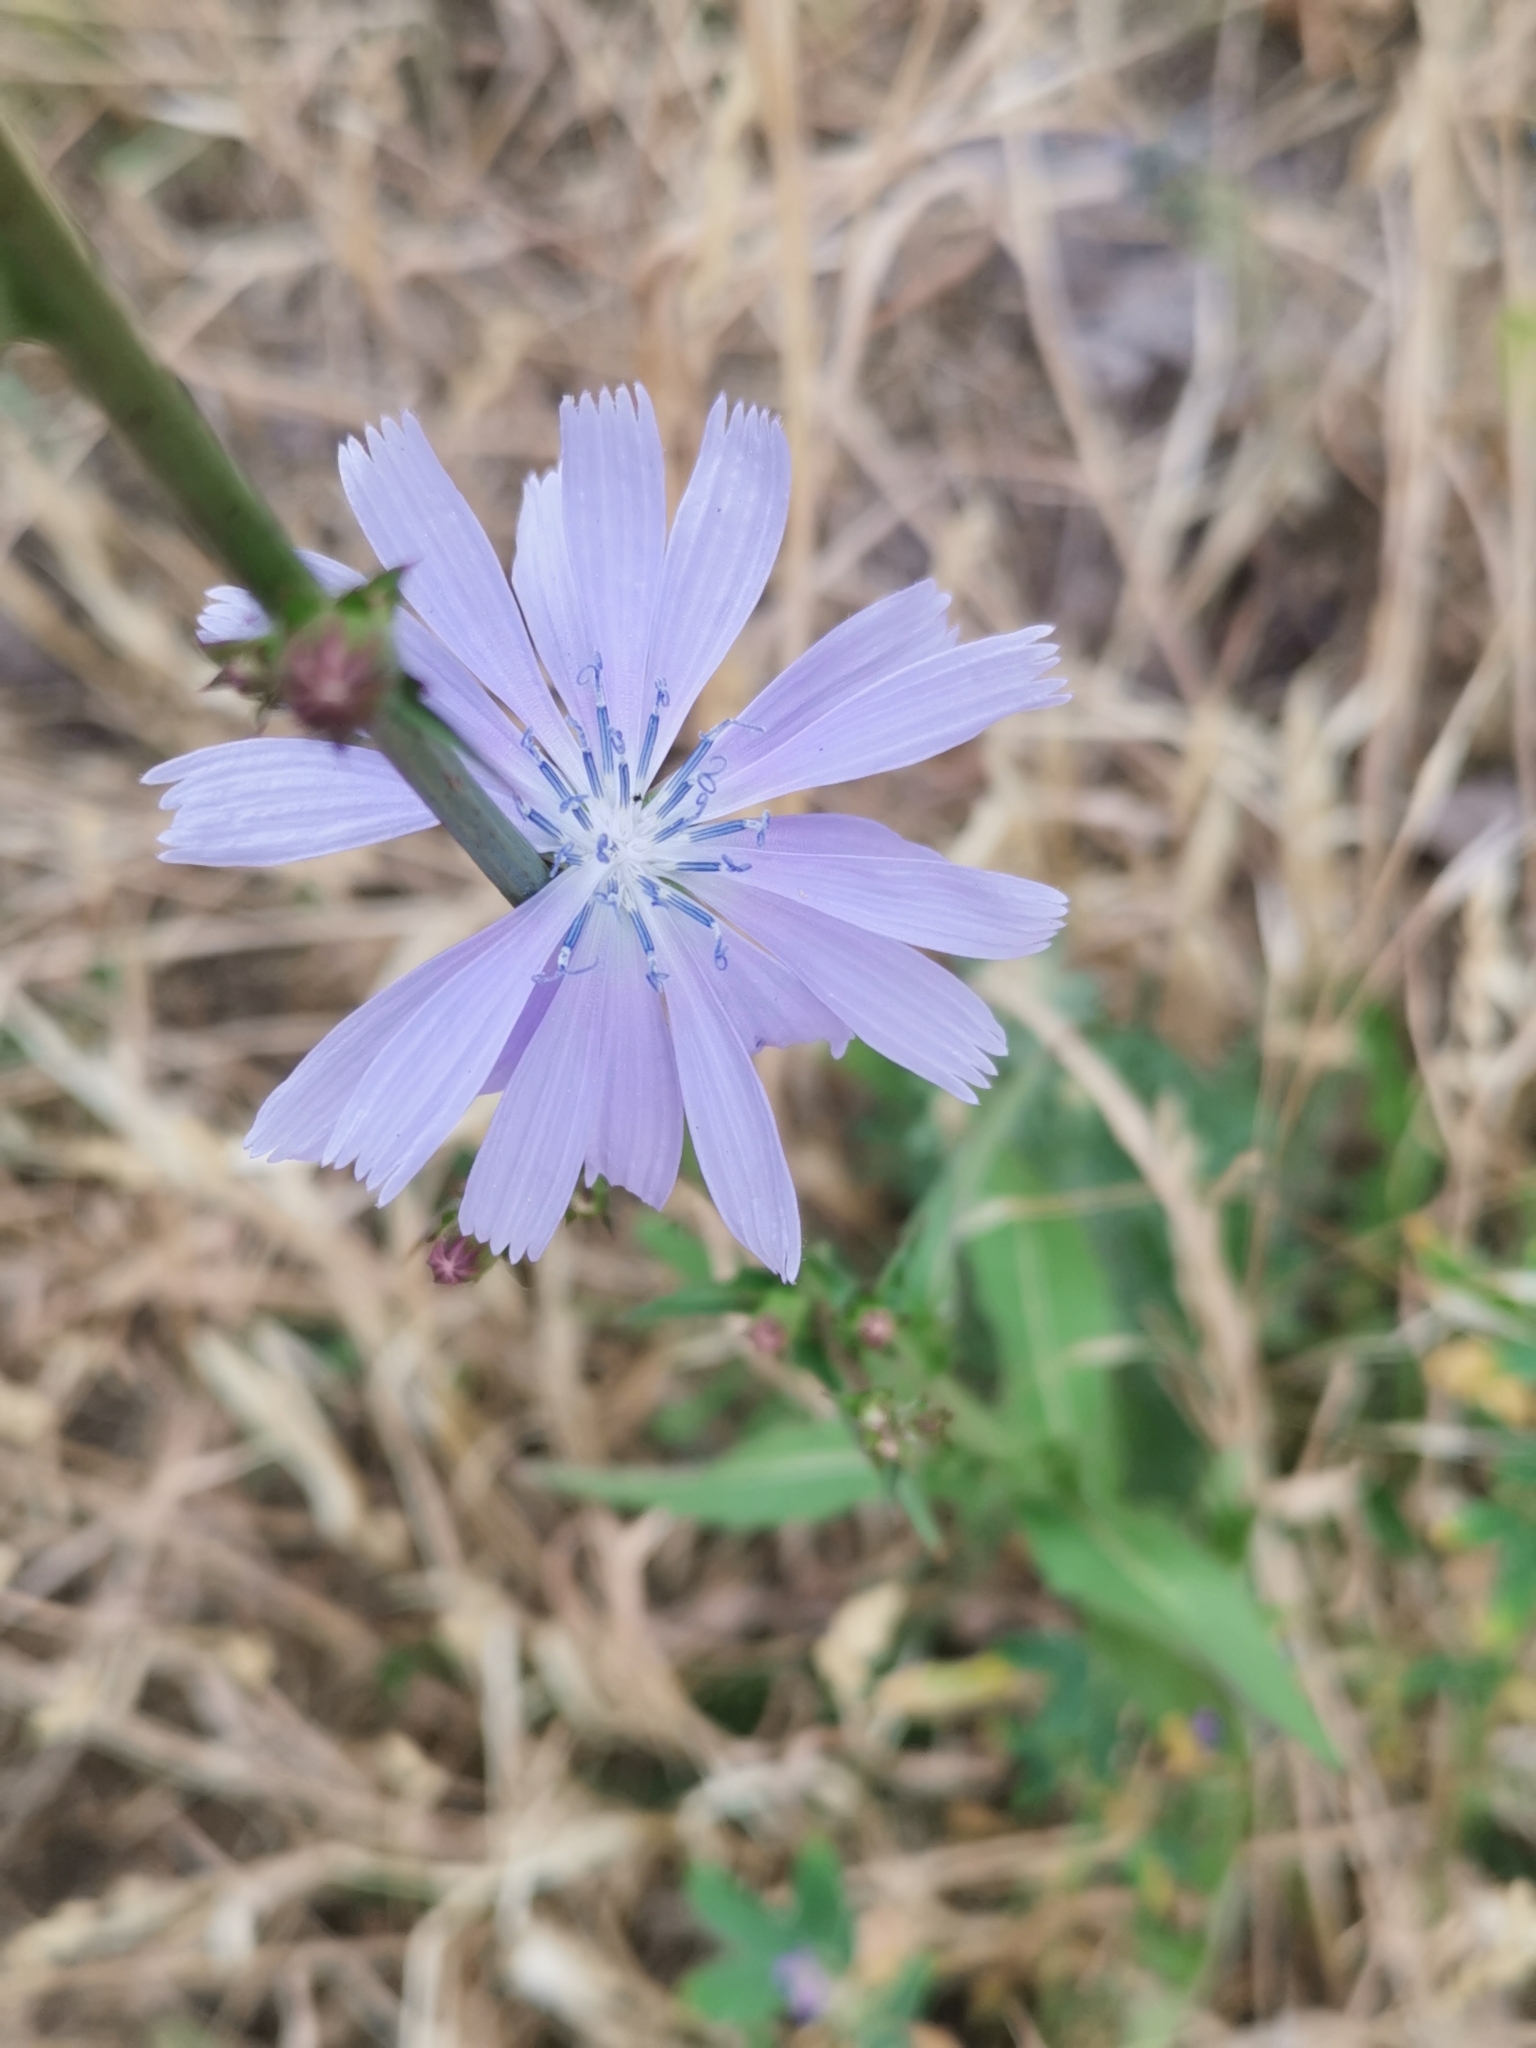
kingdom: Plantae
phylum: Tracheophyta
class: Magnoliopsida
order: Asterales
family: Asteraceae
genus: Cichorium
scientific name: Cichorium intybus
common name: Chicory
